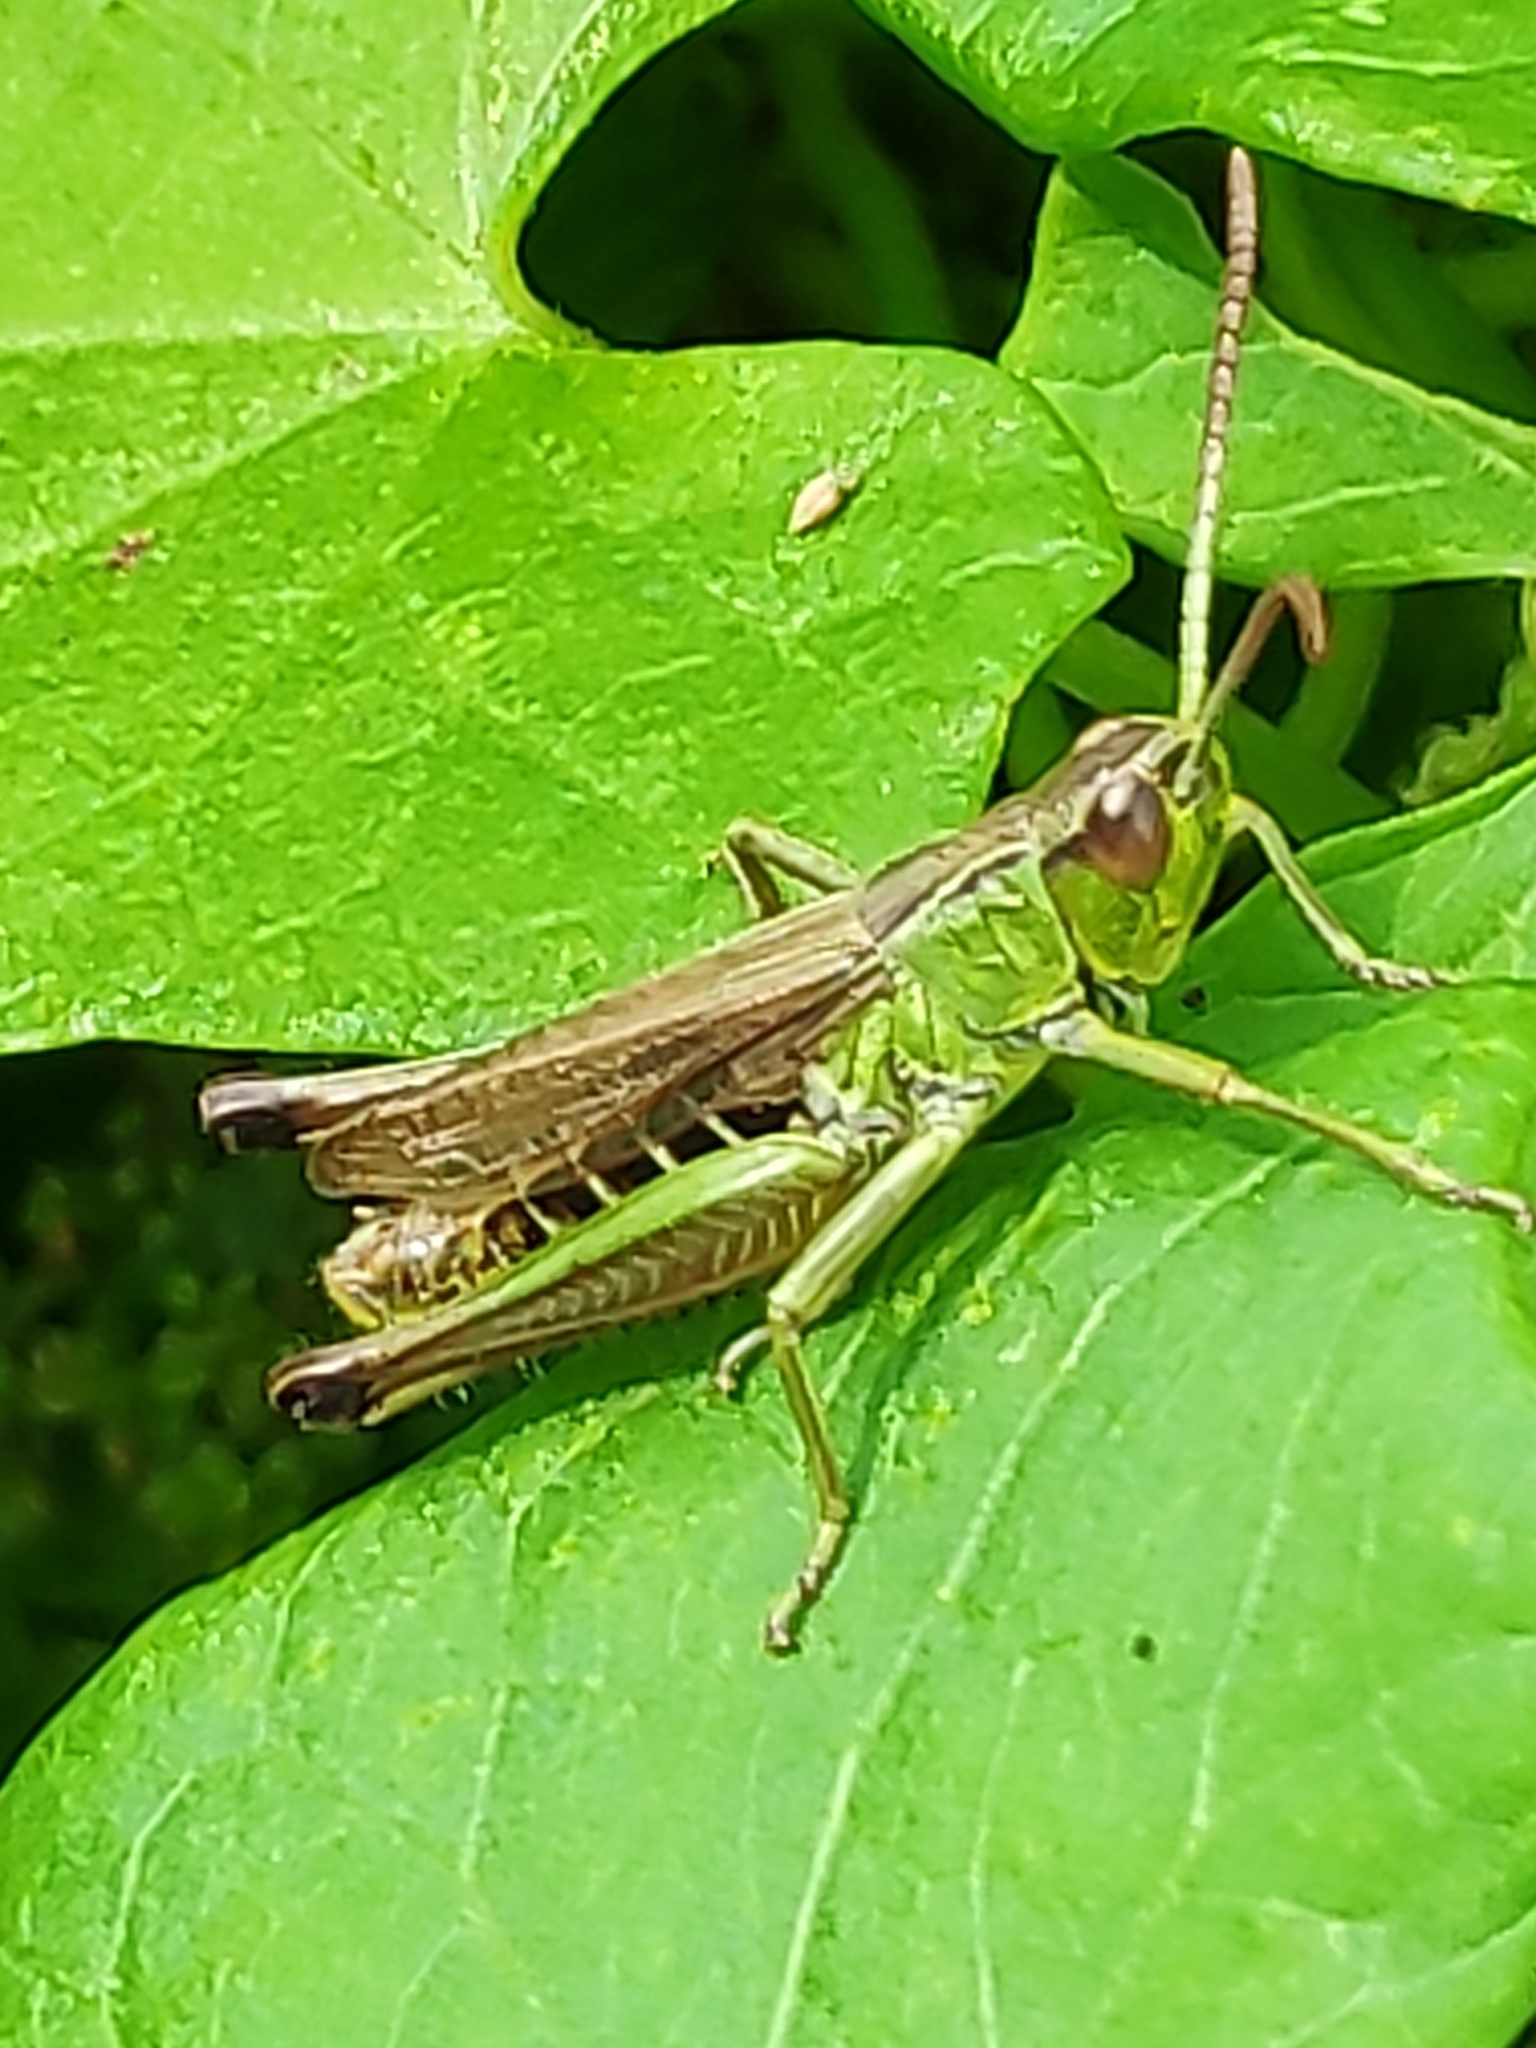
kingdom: Animalia
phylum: Arthropoda
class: Insecta
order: Orthoptera
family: Acrididae
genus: Pseudochorthippus
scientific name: Pseudochorthippus parallelus
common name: Meadow grasshopper
